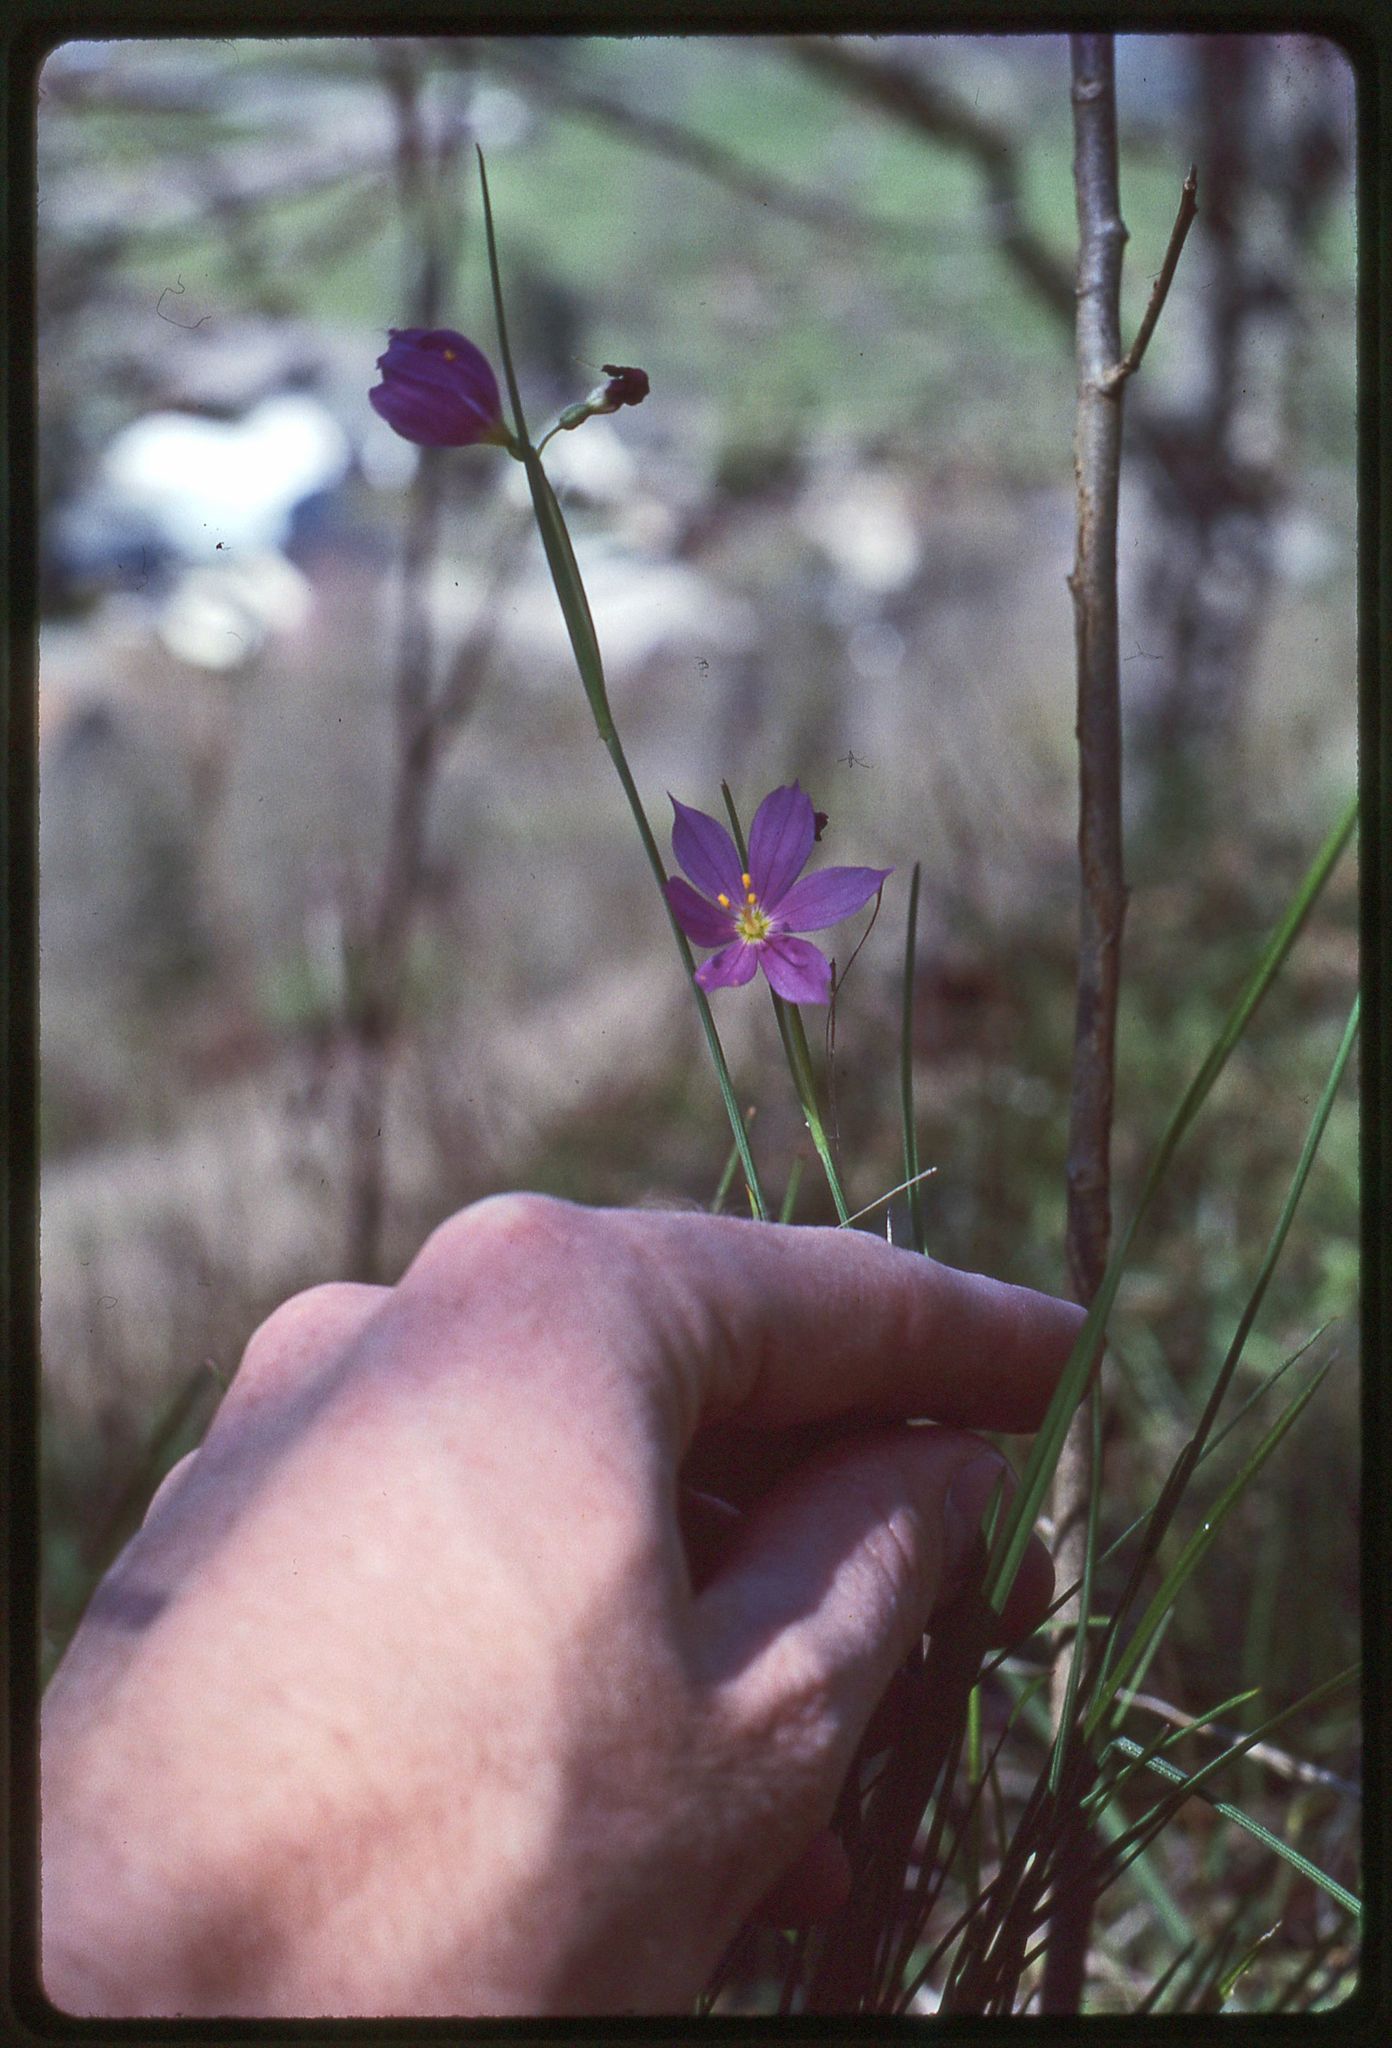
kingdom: Plantae
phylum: Tracheophyta
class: Liliopsida
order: Asparagales
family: Iridaceae
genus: Olsynium
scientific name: Olsynium douglasii
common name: Douglas' grasswidow
